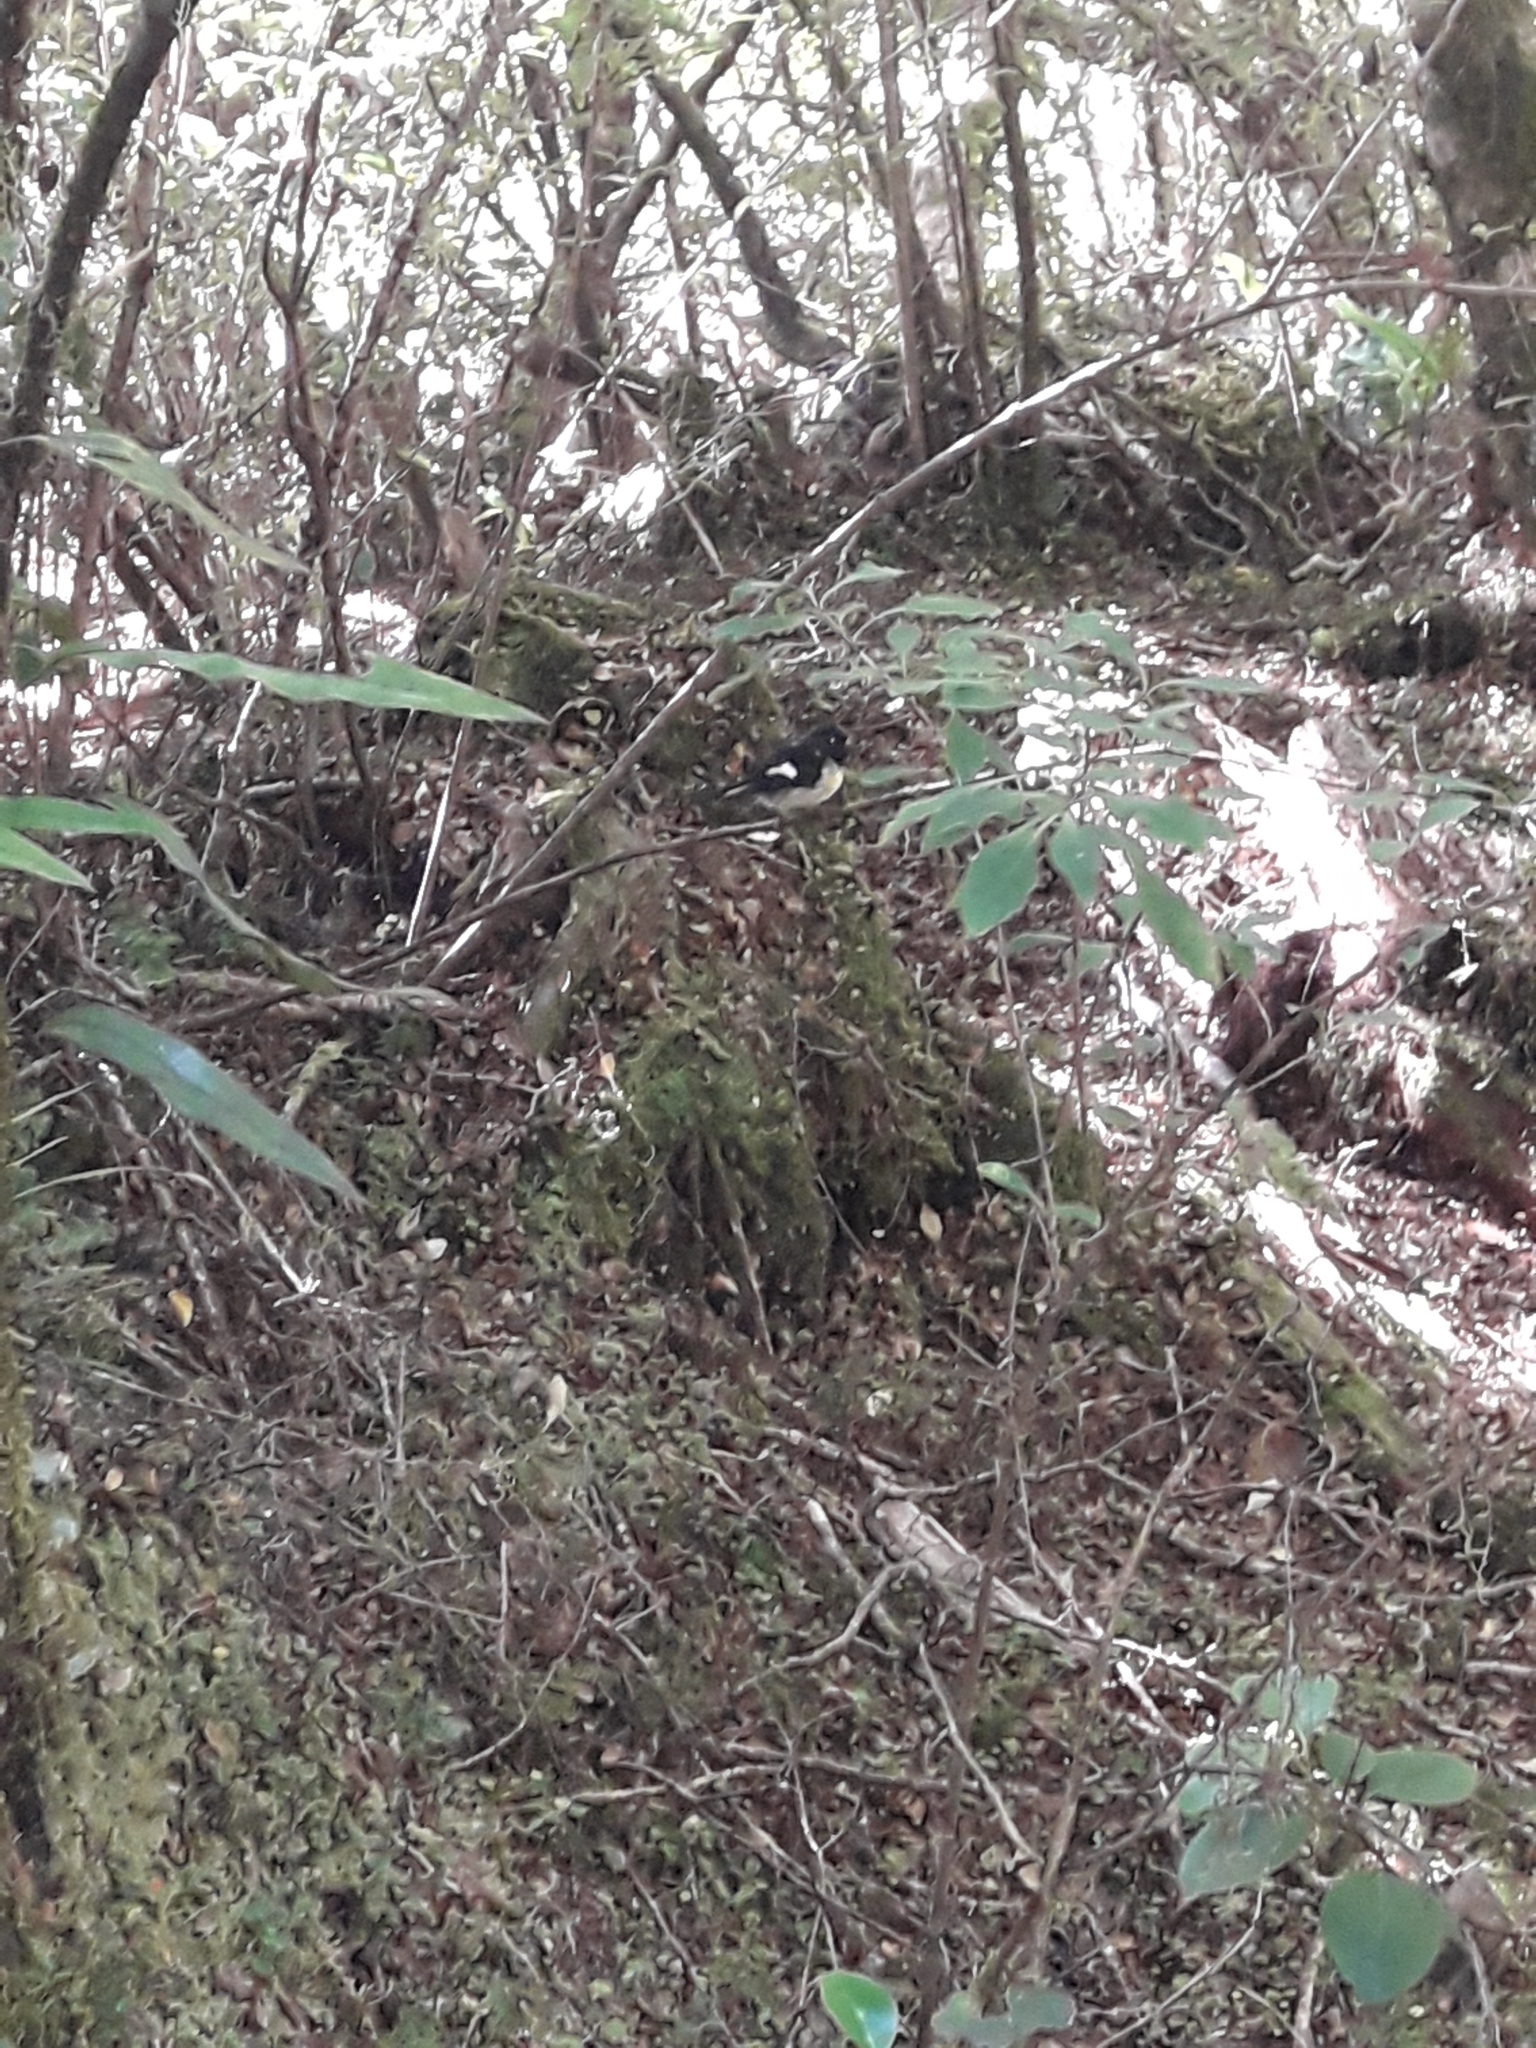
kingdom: Animalia
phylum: Chordata
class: Aves
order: Passeriformes
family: Petroicidae
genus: Petroica
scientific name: Petroica macrocephala
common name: Tomtit
